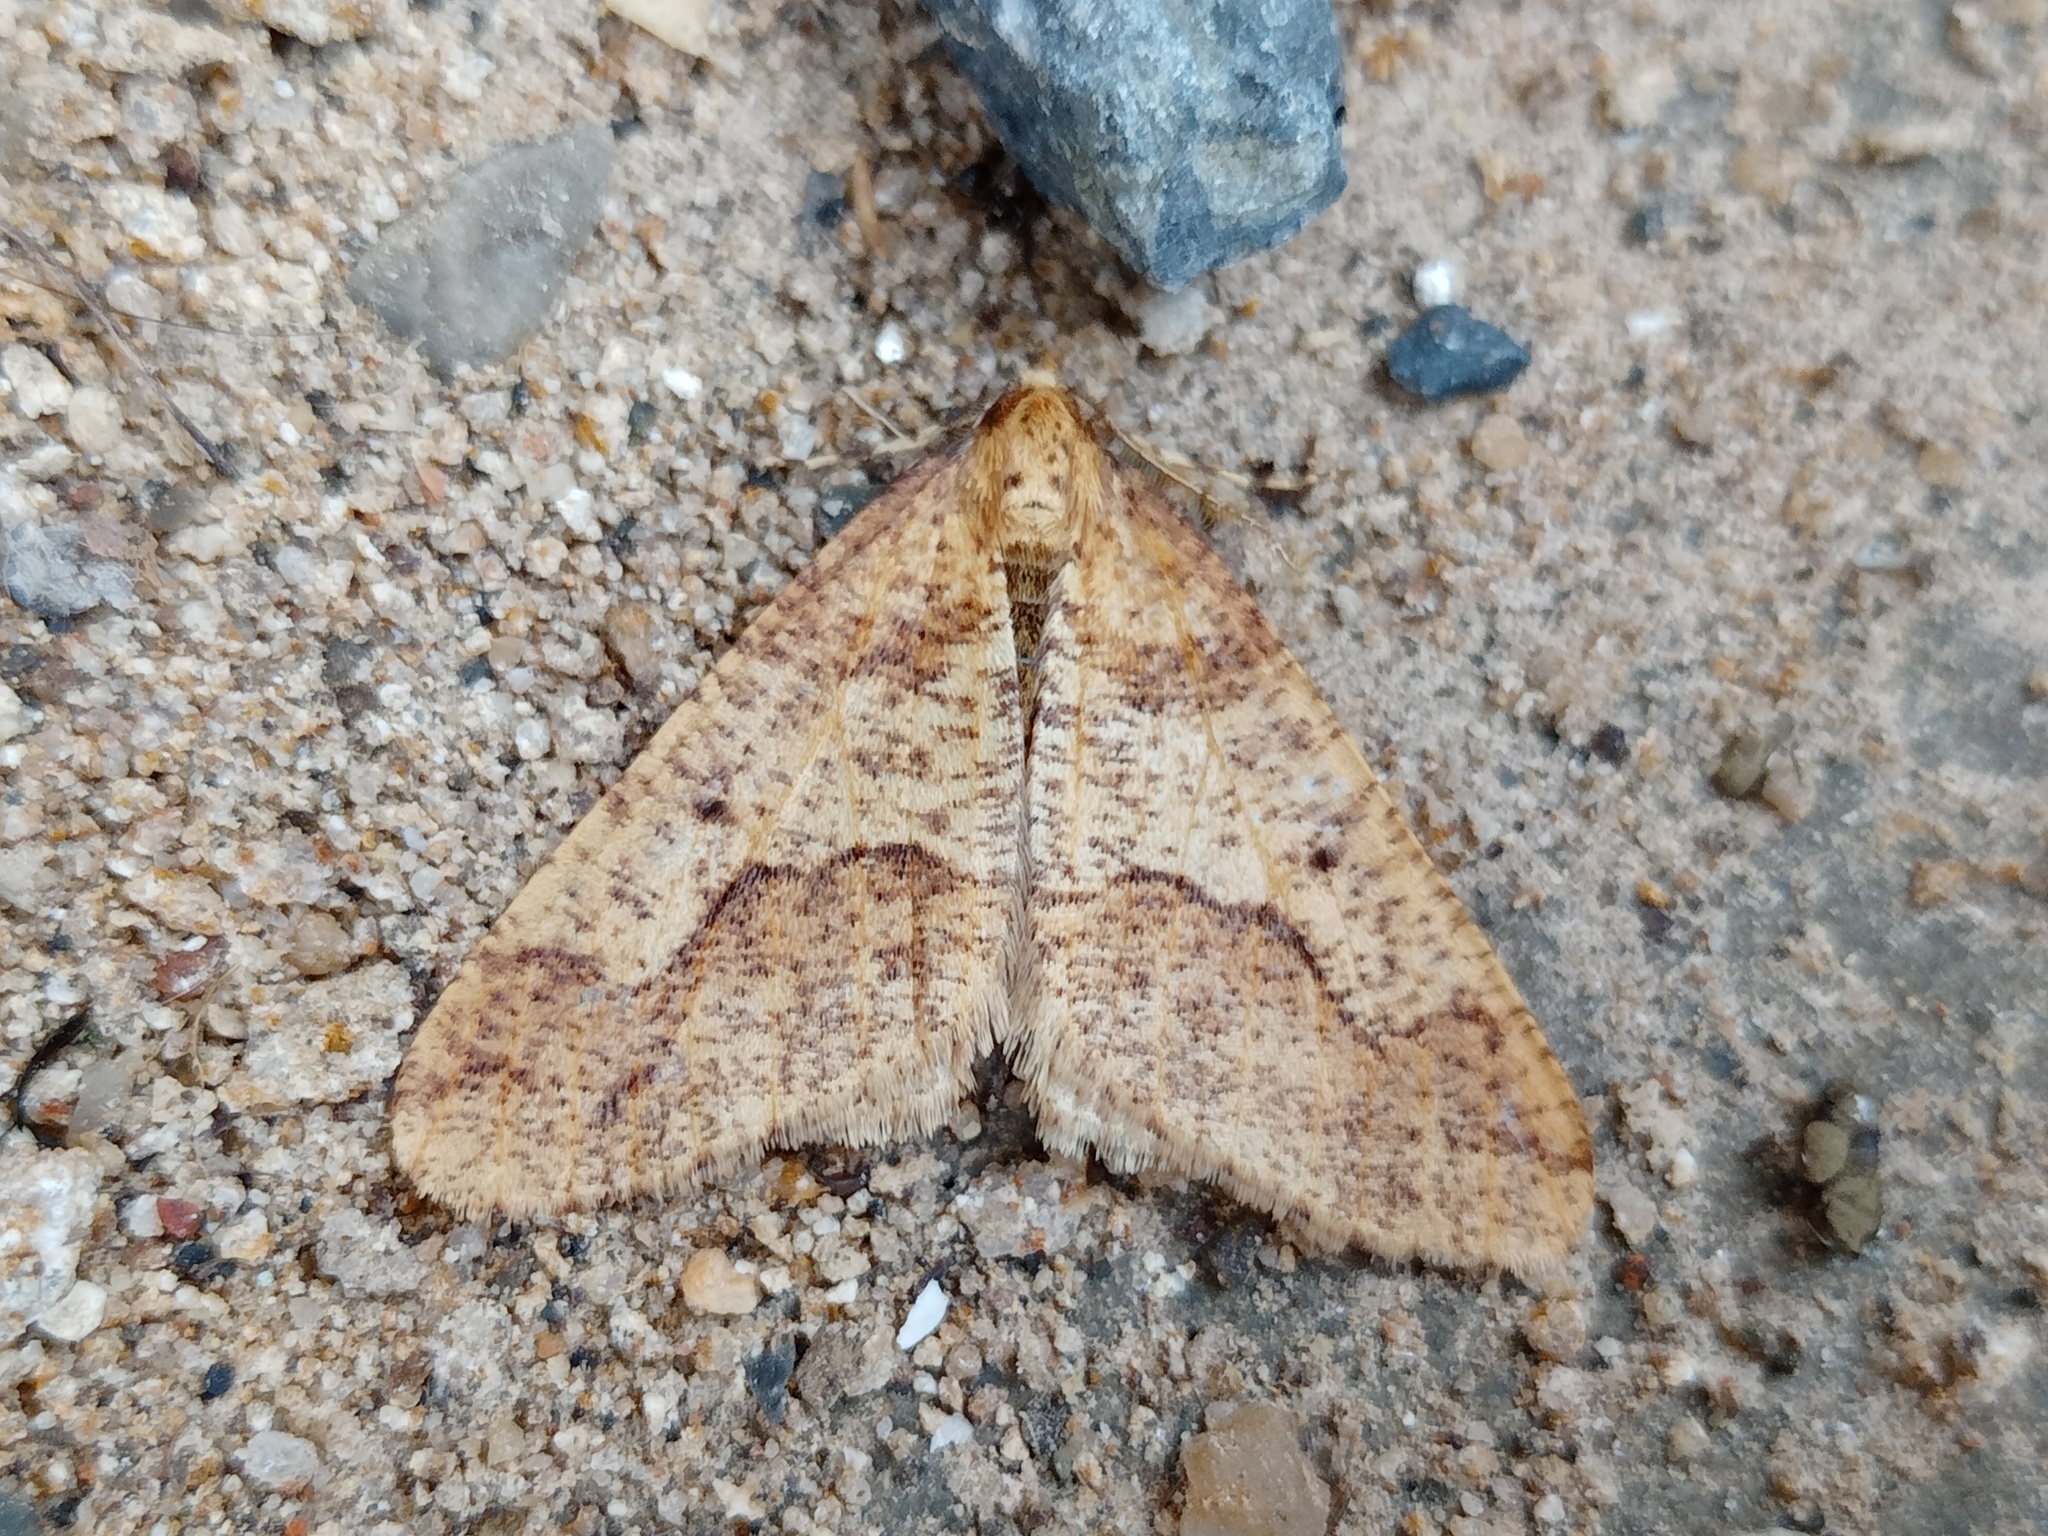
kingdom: Animalia
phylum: Arthropoda
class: Insecta
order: Lepidoptera
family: Geometridae
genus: Erannis
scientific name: Erannis defoliaria
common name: Mottled umber
